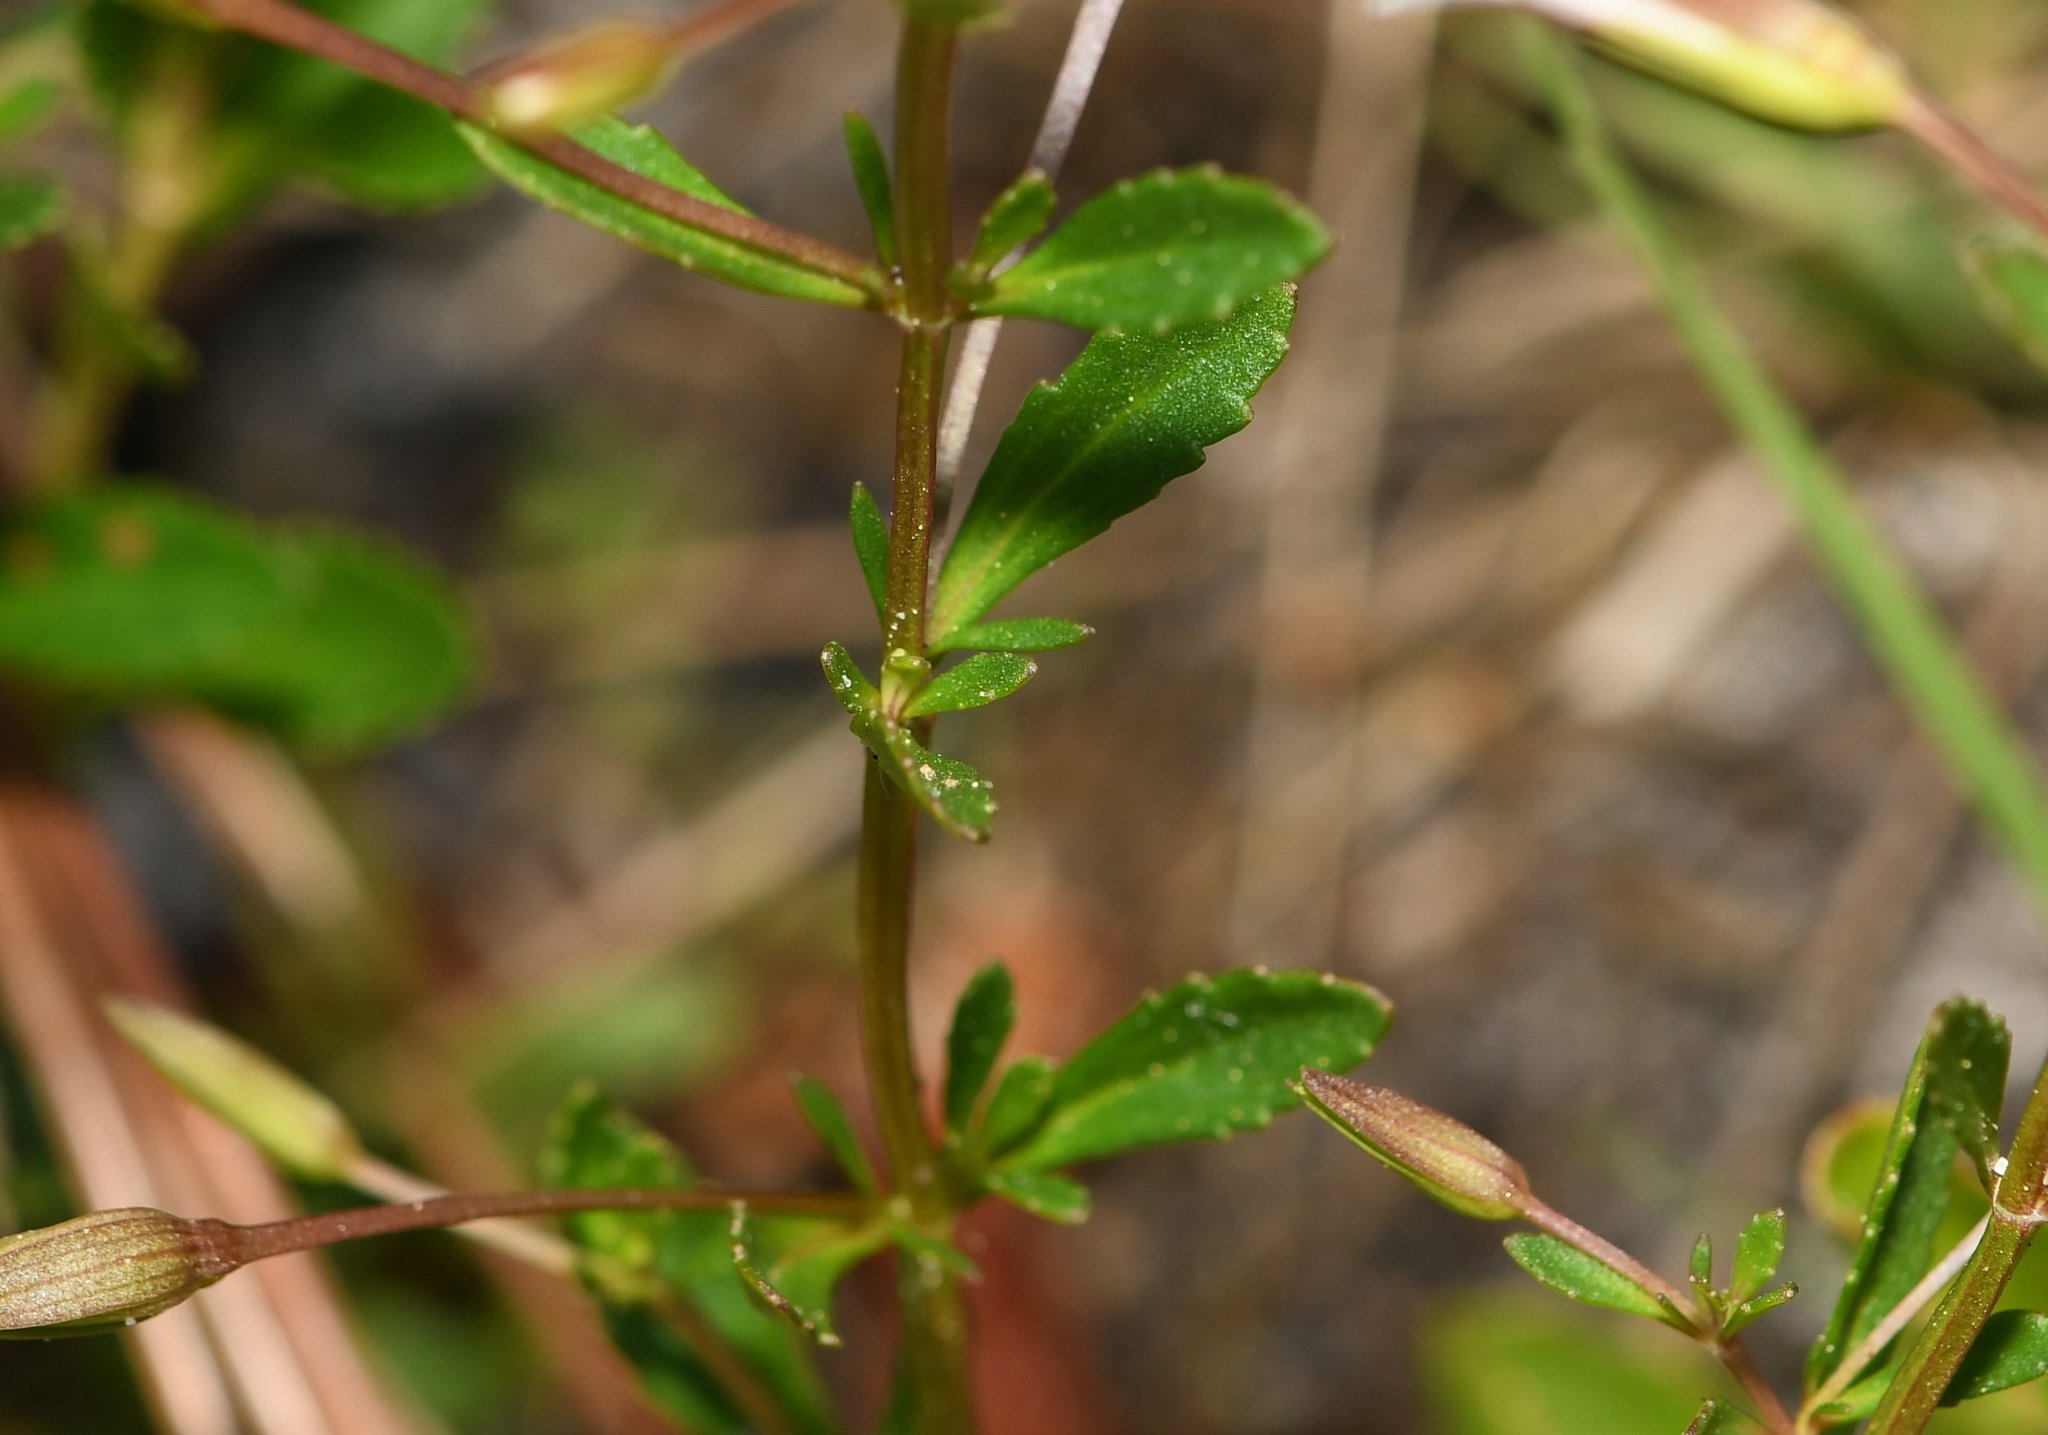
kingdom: Plantae
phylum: Tracheophyta
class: Magnoliopsida
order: Lamiales
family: Plantaginaceae
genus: Mecardonia
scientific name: Mecardonia acuminata
